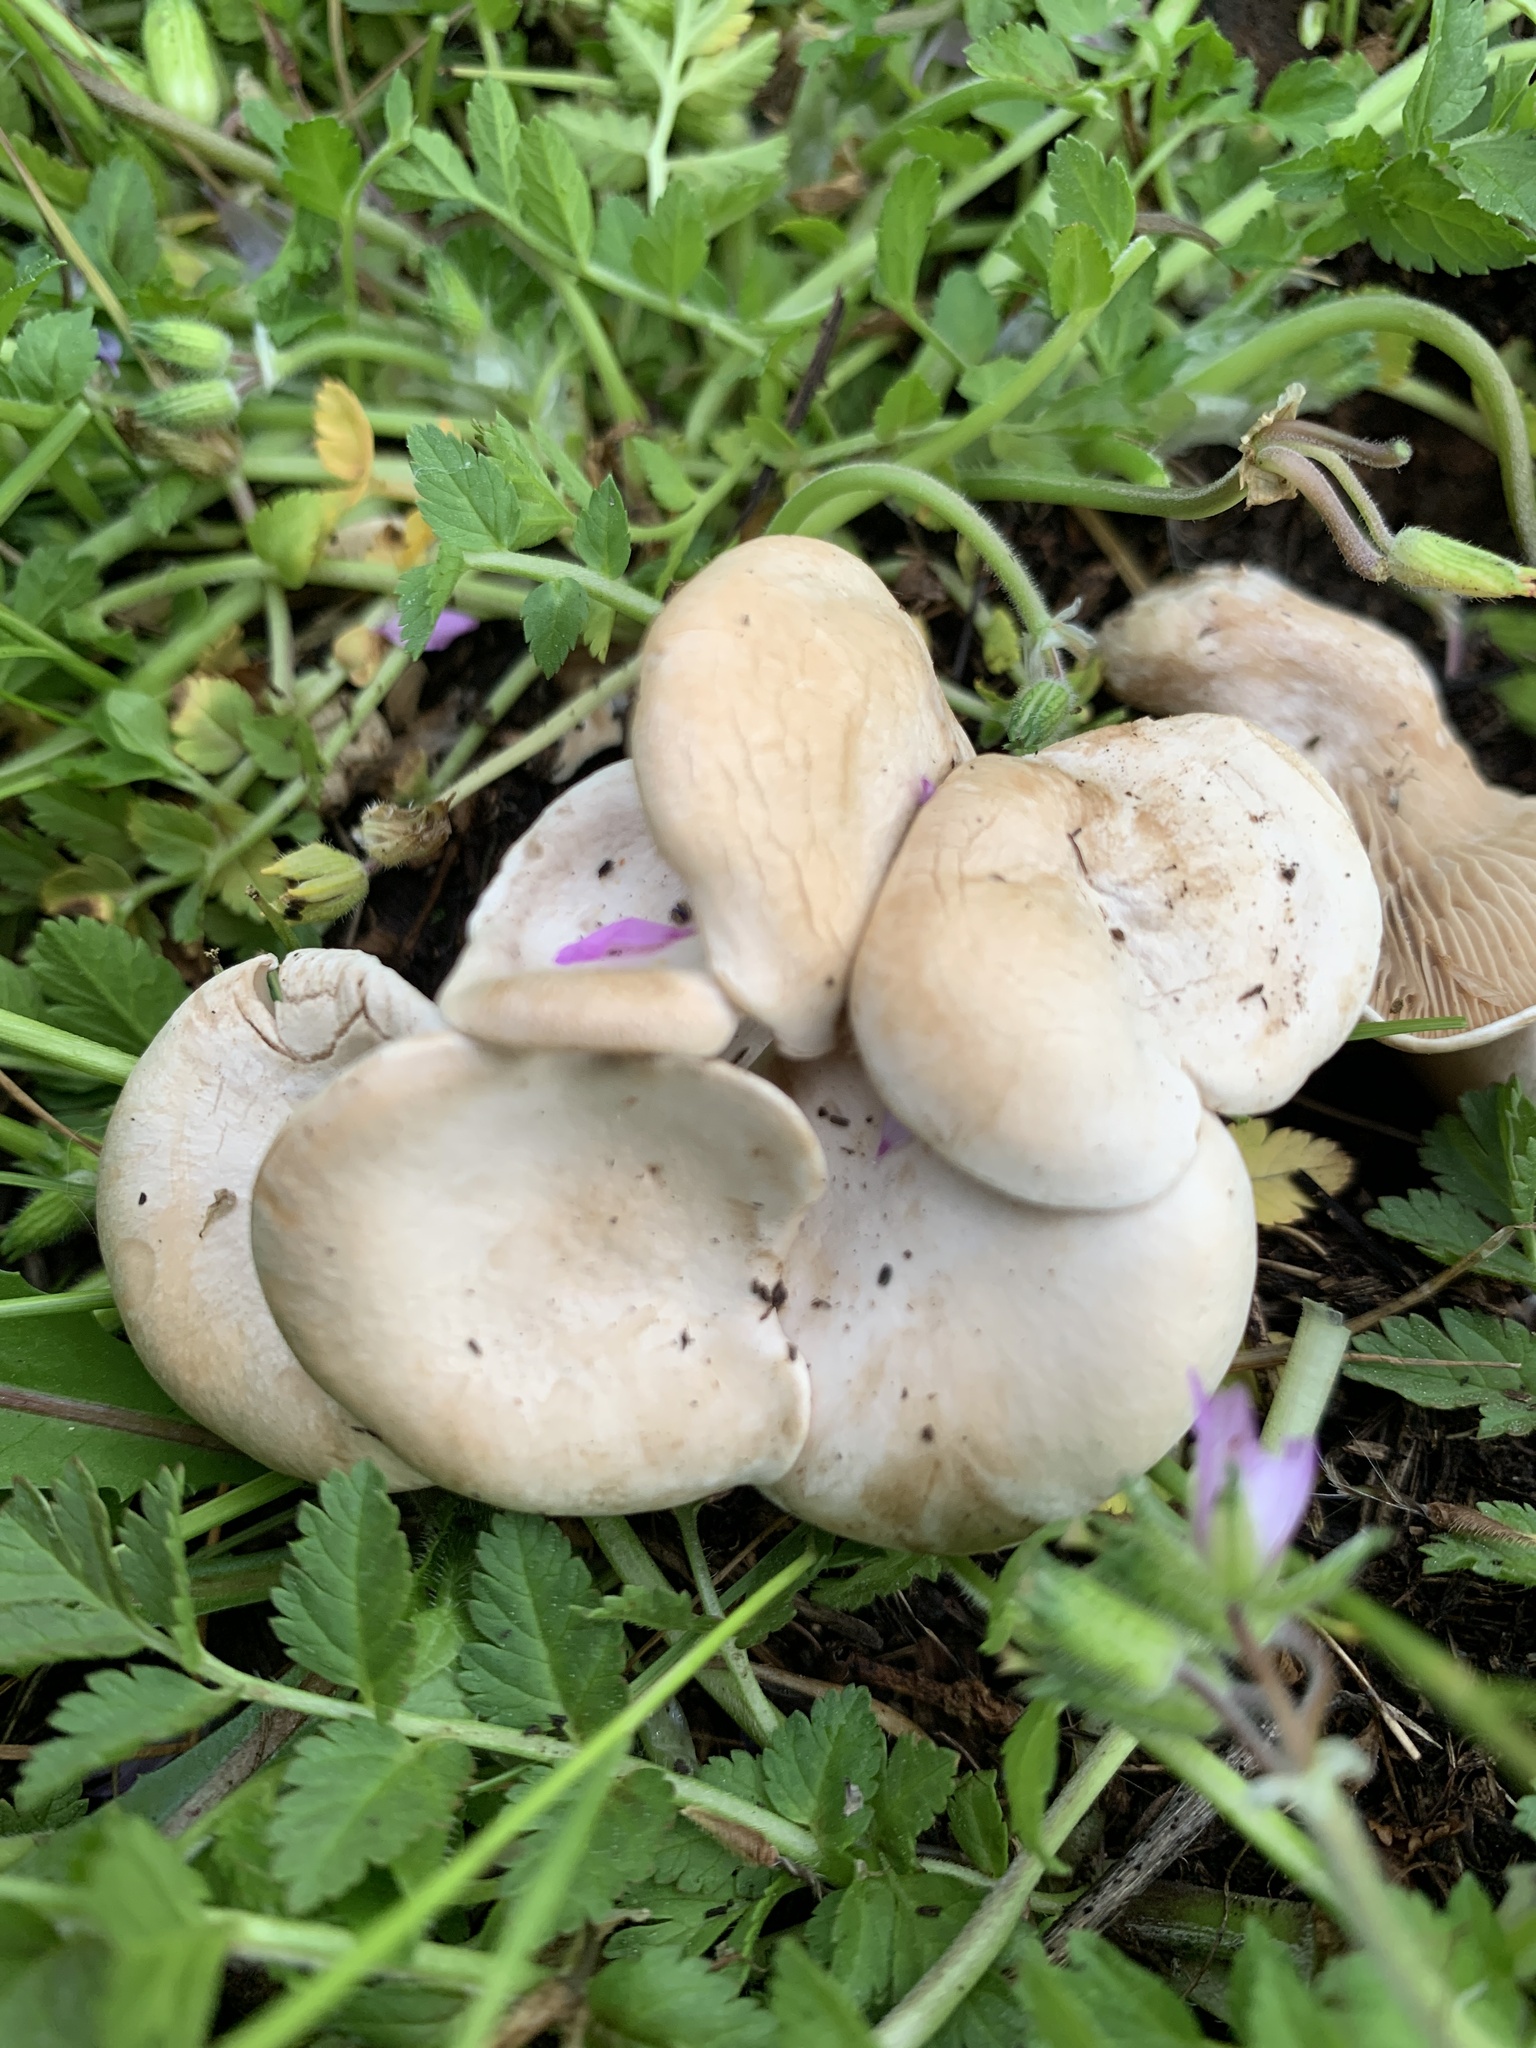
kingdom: Fungi
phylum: Basidiomycota
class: Agaricomycetes
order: Agaricales
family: Entolomataceae
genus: Clitopilus
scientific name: Clitopilus cystidiatus
